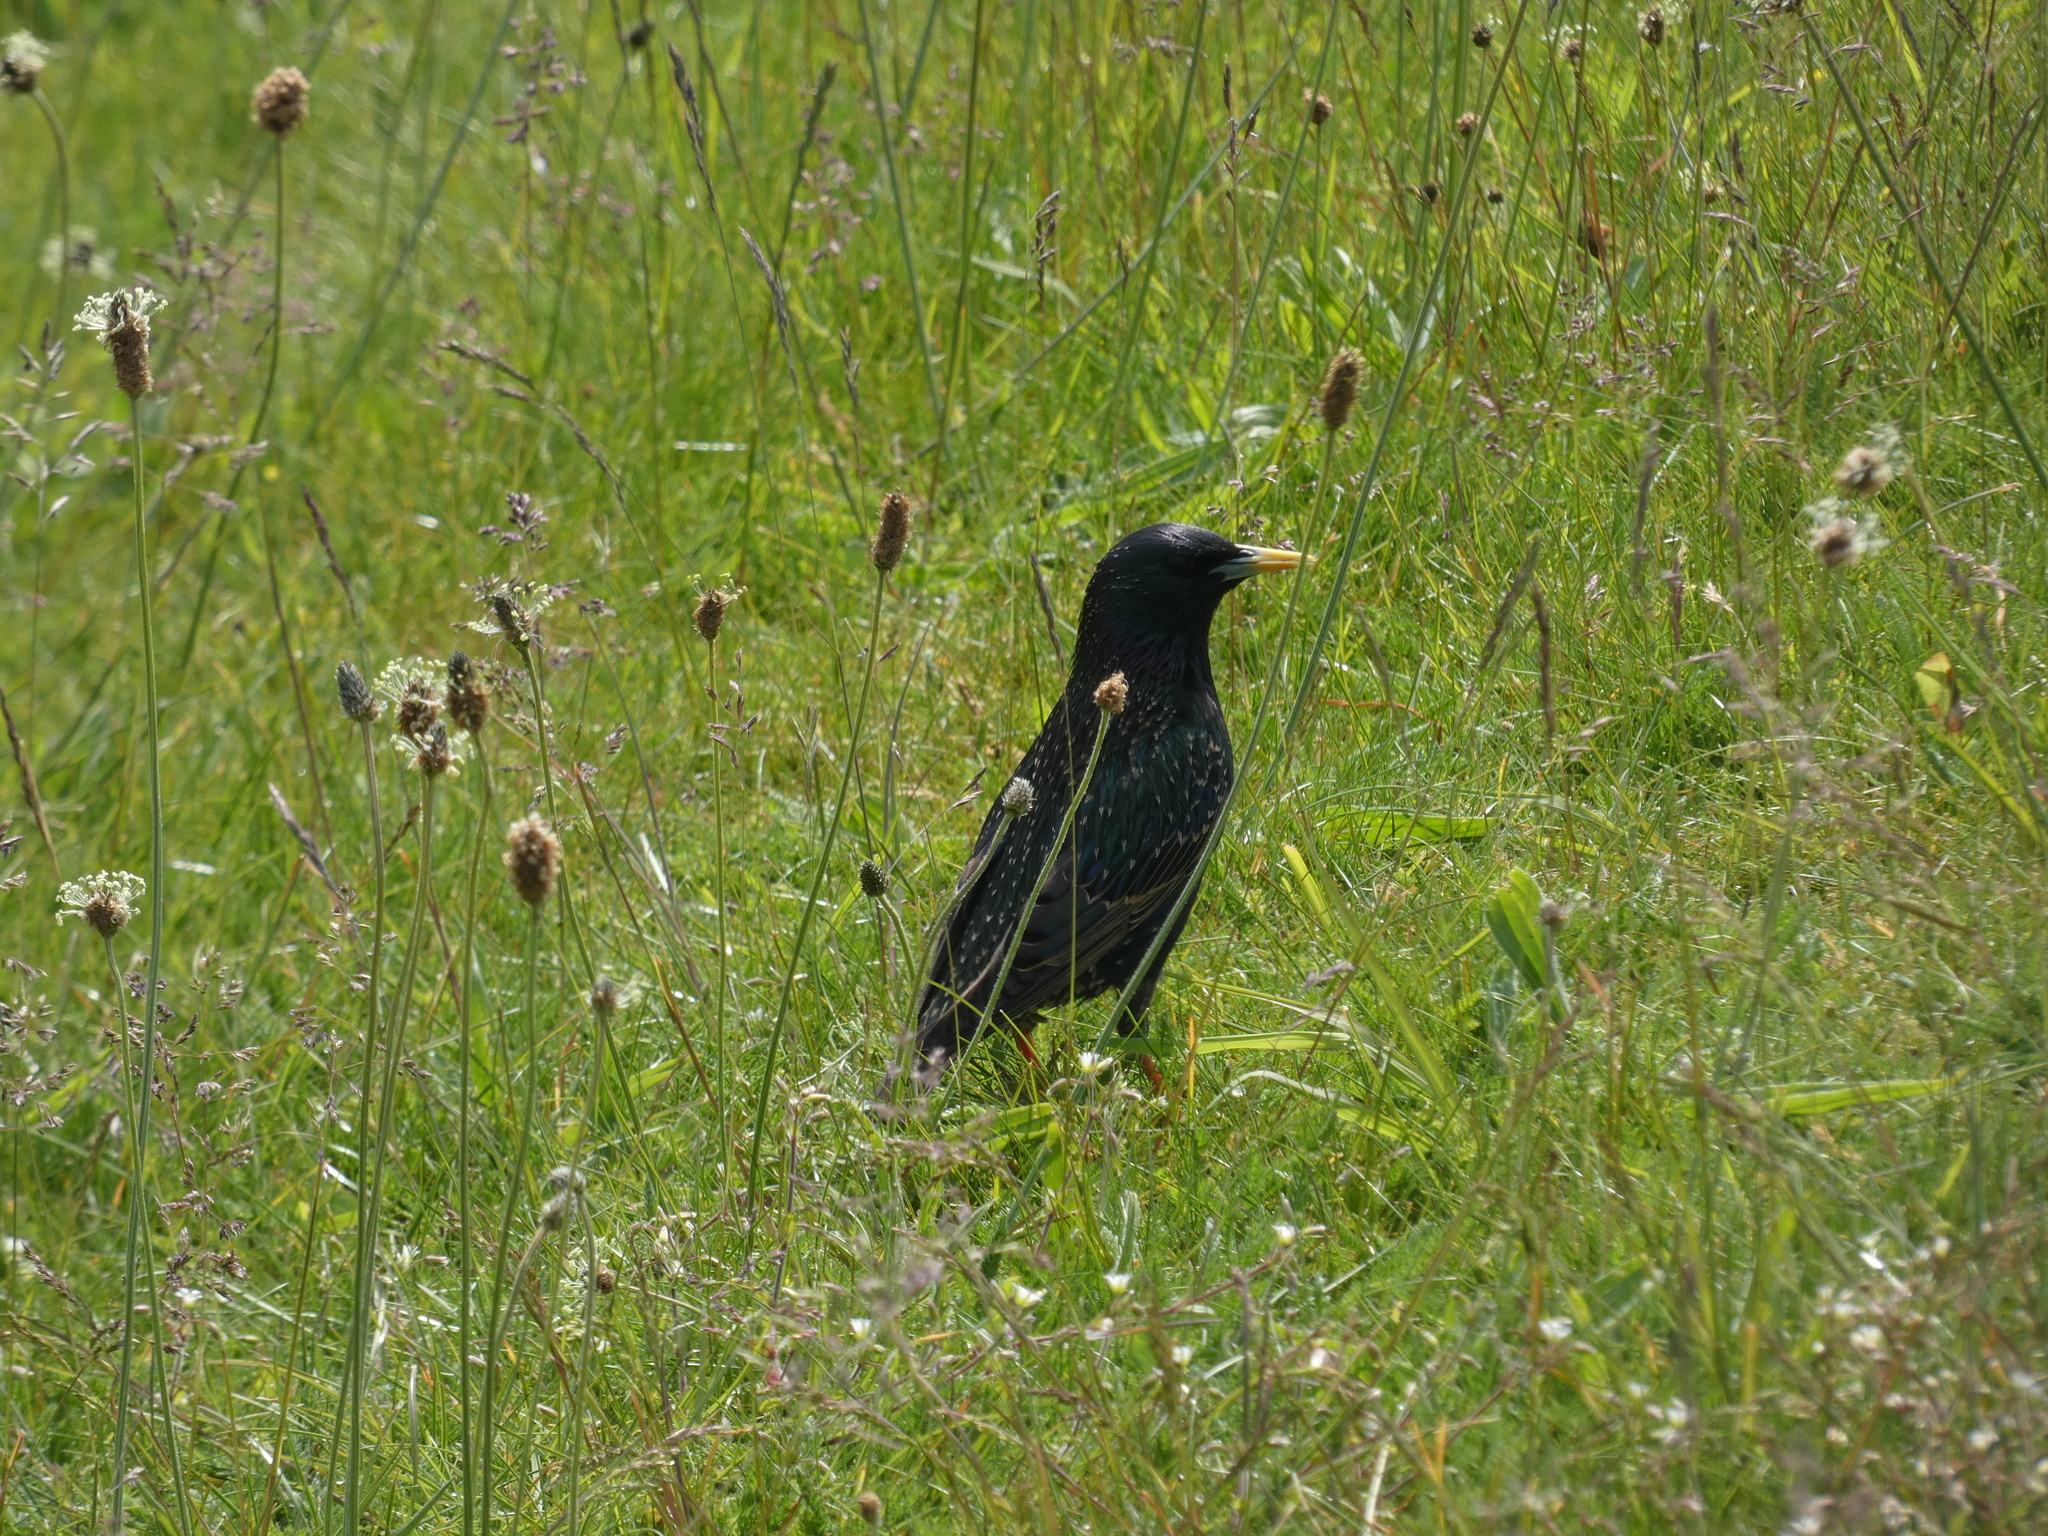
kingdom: Animalia
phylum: Chordata
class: Aves
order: Passeriformes
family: Sturnidae
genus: Sturnus
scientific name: Sturnus vulgaris
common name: Common starling
